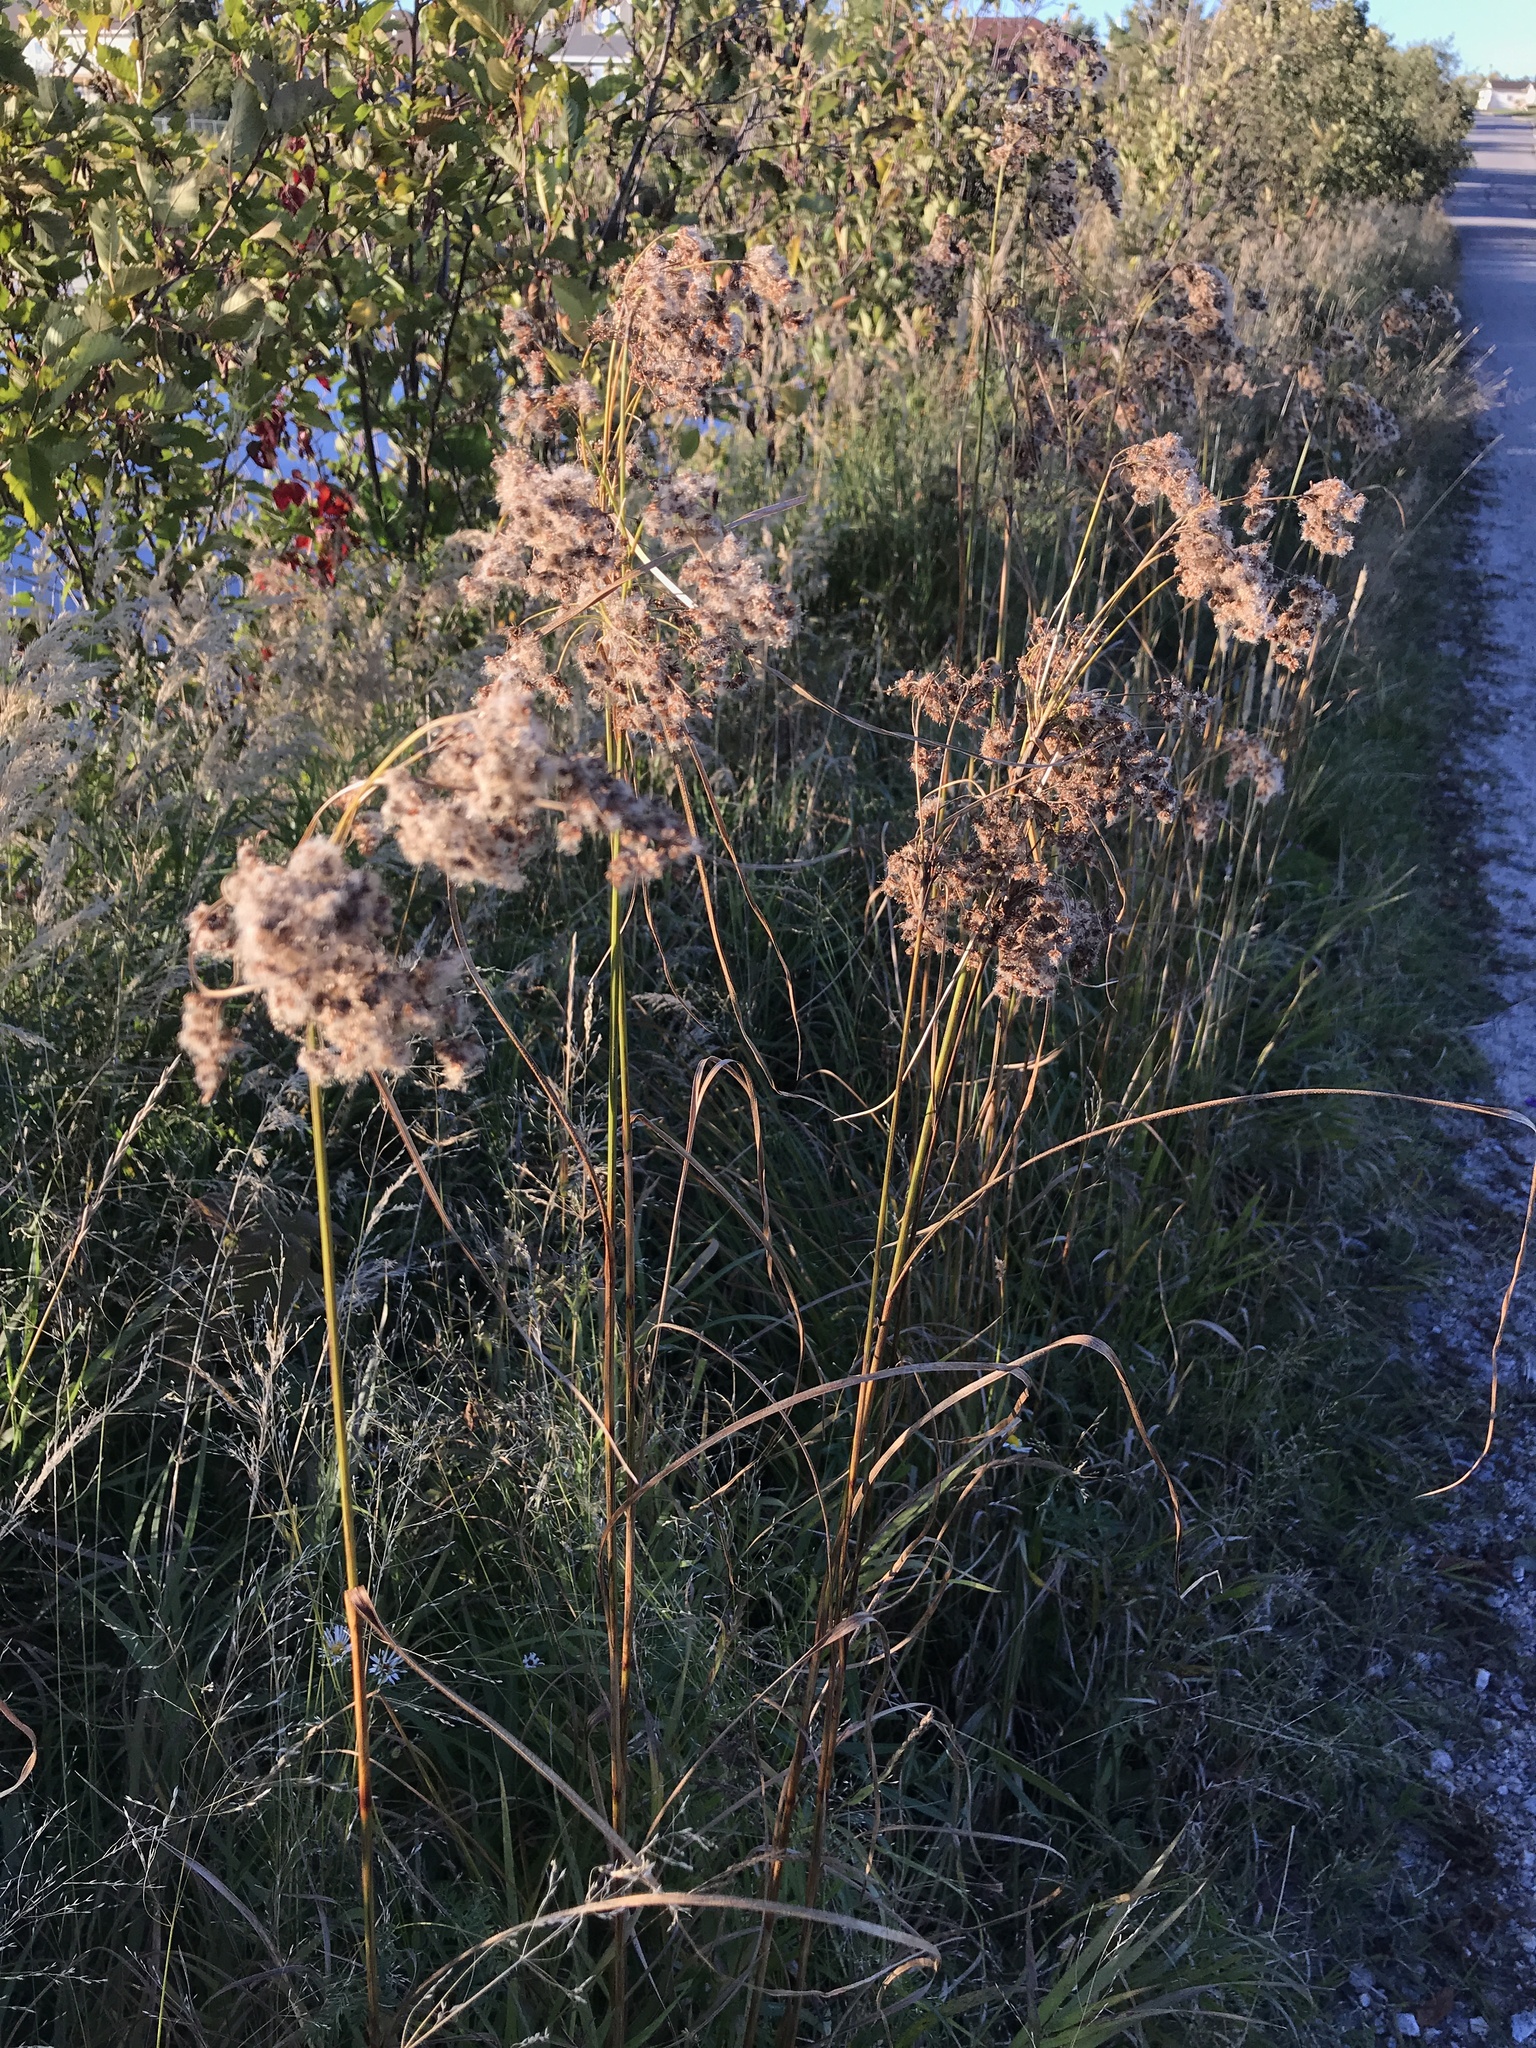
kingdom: Plantae
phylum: Tracheophyta
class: Liliopsida
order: Poales
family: Cyperaceae
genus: Scirpus
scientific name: Scirpus cyperinus
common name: Black-sheathed bulrush
